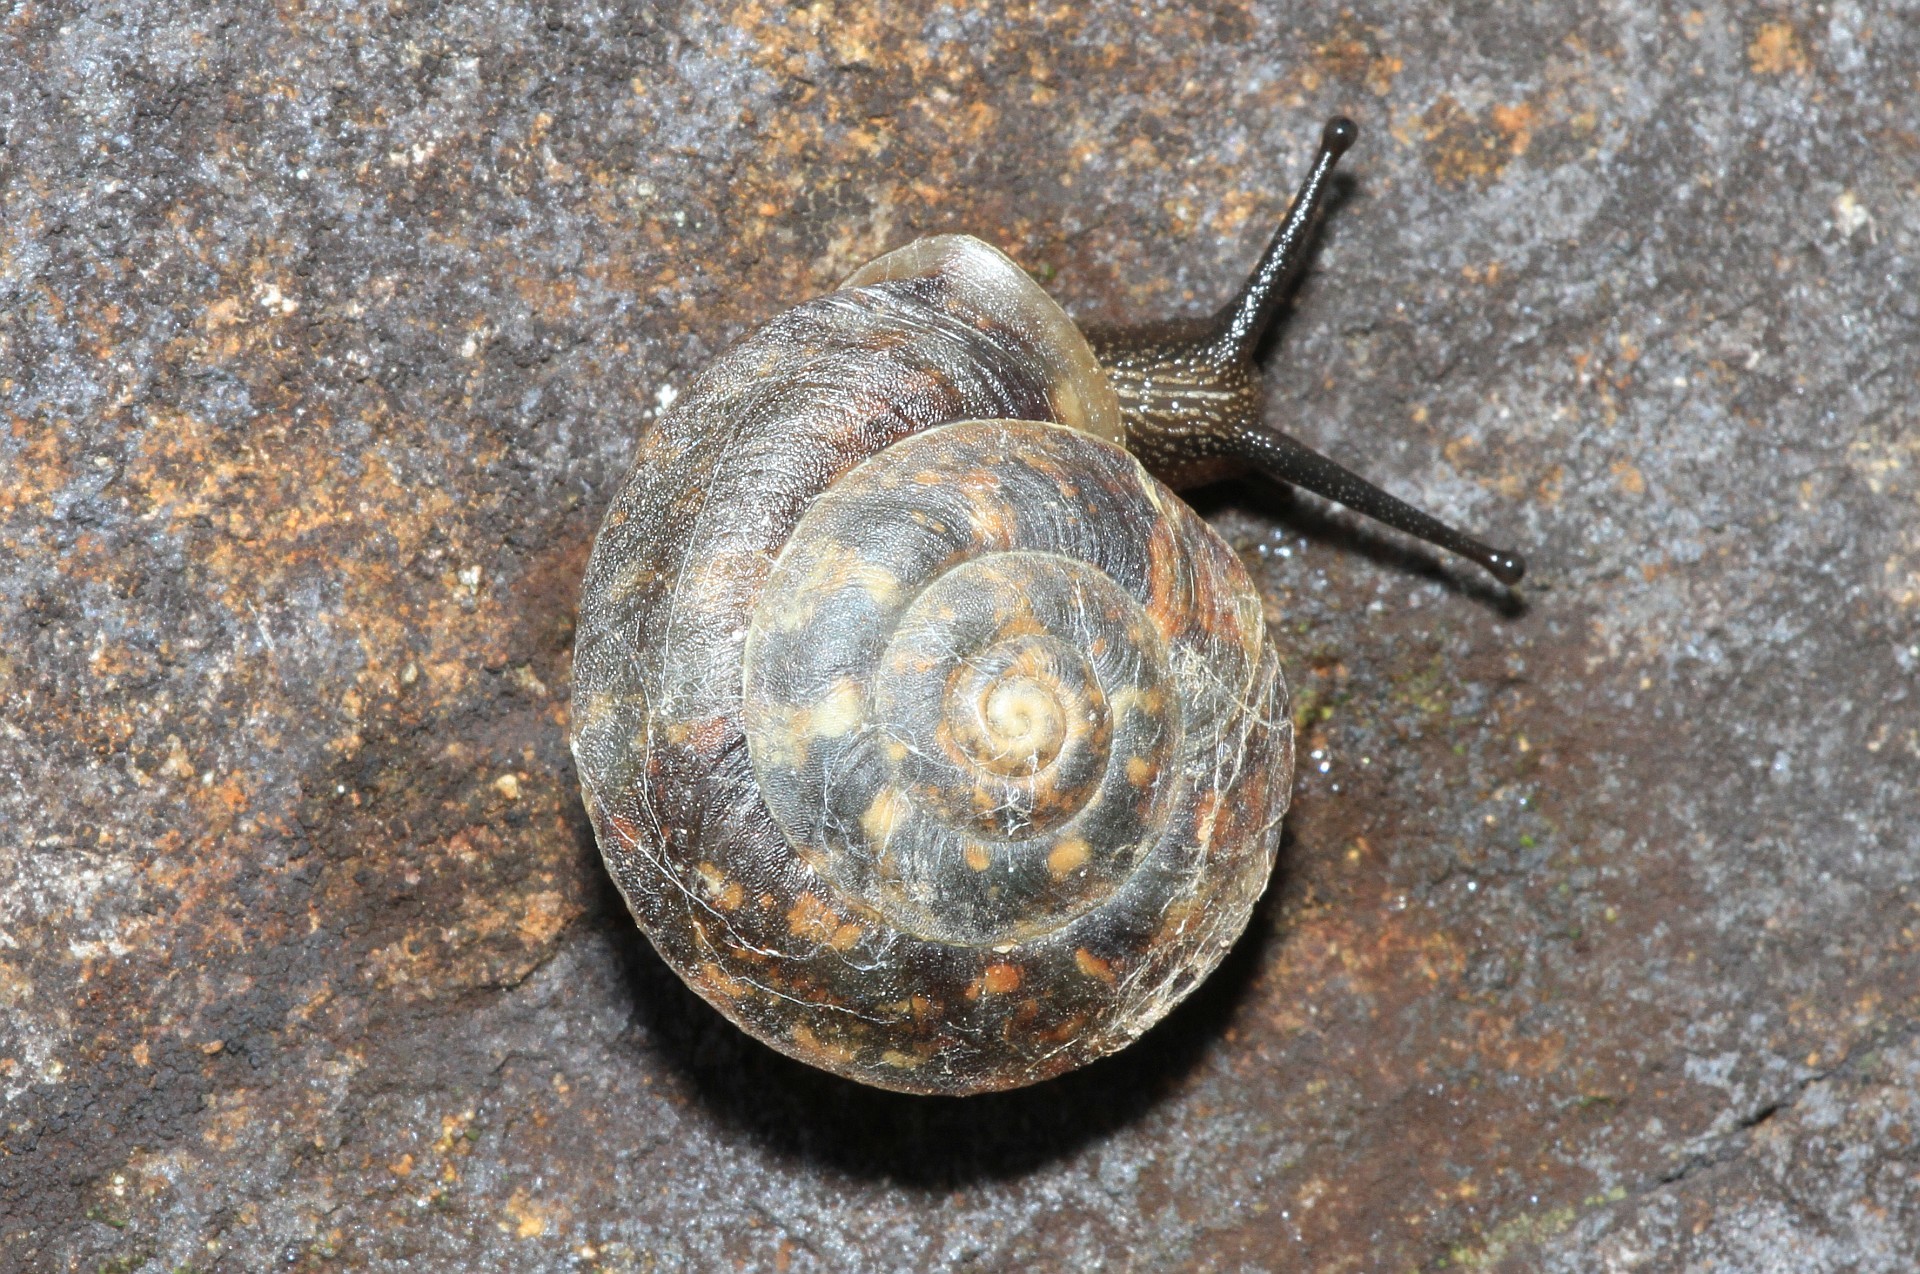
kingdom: Animalia
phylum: Mollusca
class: Gastropoda
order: Stylommatophora
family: Helicidae
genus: Helicigona
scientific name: Helicigona lapicida
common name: Lapidary snail
